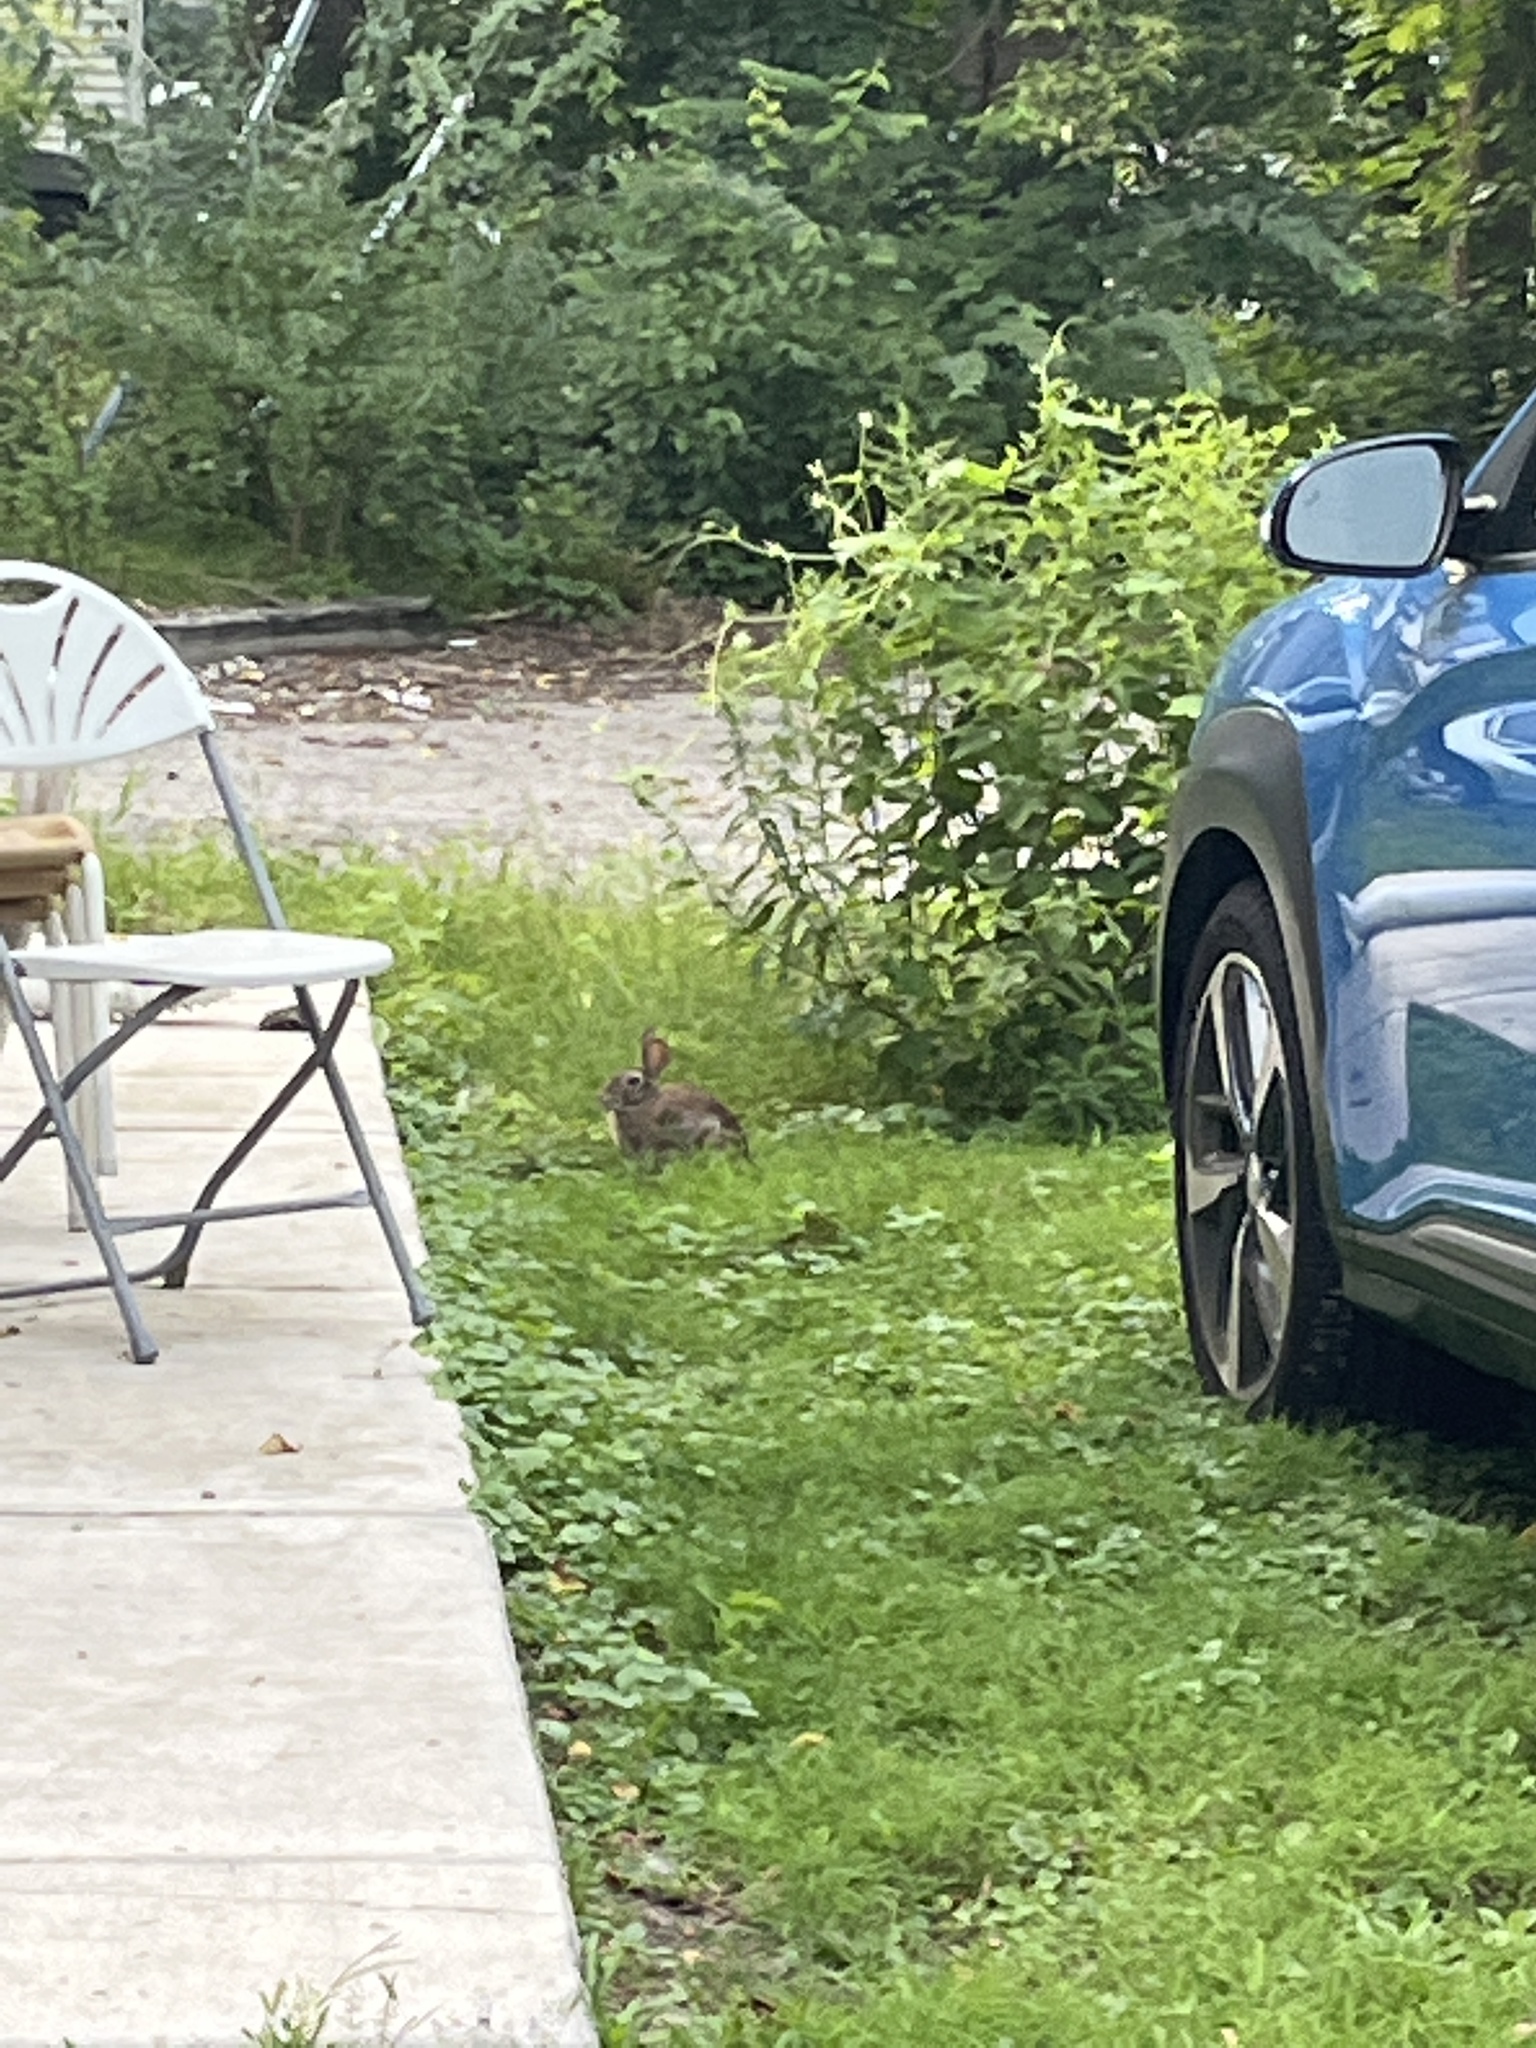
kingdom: Animalia
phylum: Chordata
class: Mammalia
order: Lagomorpha
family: Leporidae
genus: Sylvilagus
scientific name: Sylvilagus floridanus
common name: Eastern cottontail
